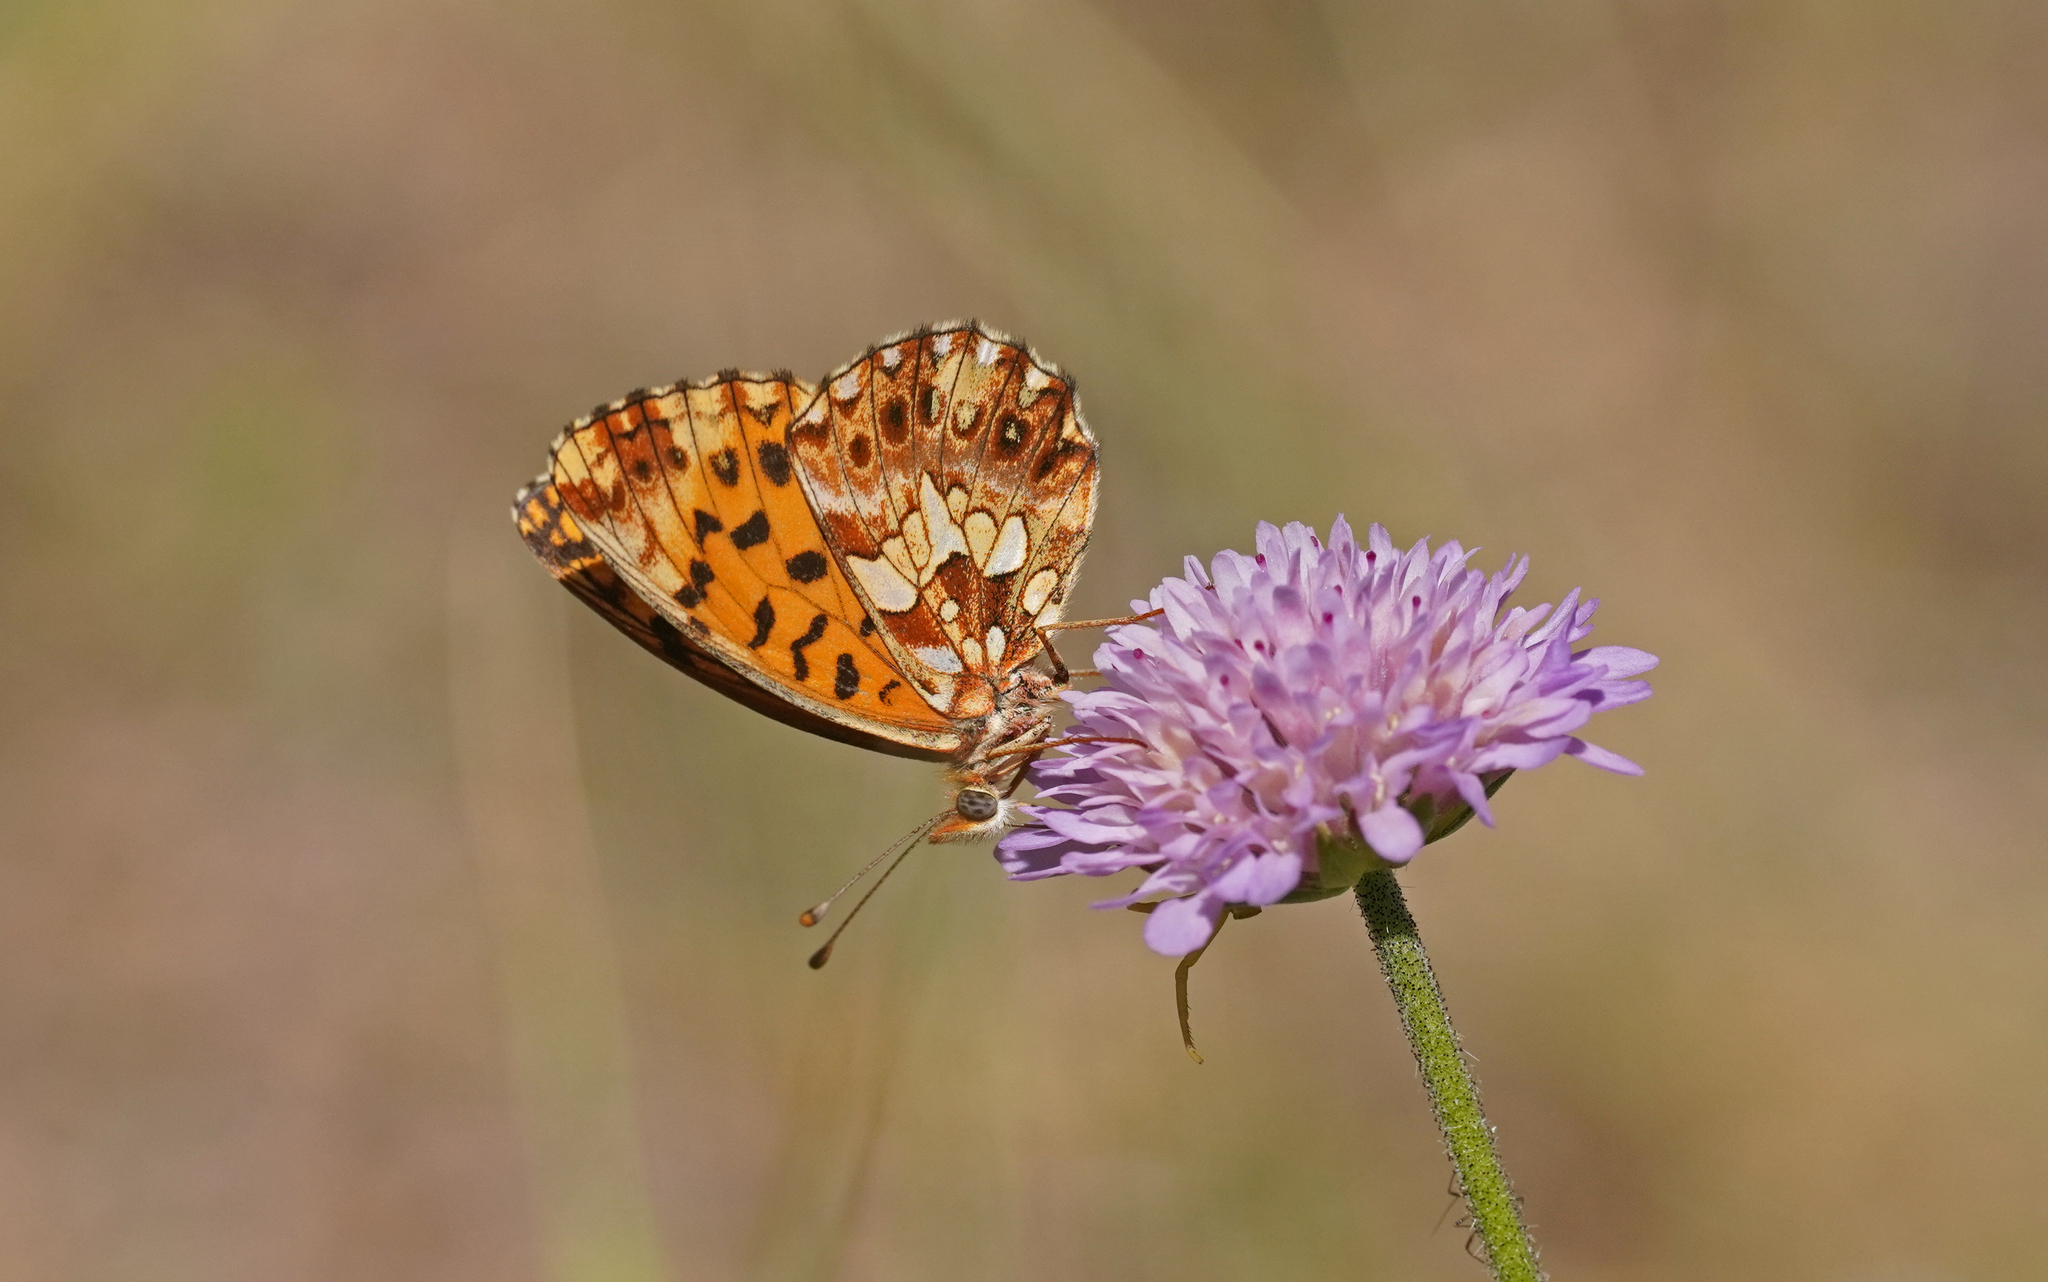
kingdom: Animalia
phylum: Arthropoda
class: Insecta
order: Lepidoptera
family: Nymphalidae
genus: Boloria
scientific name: Boloria dia
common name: Weaver's fritillary
